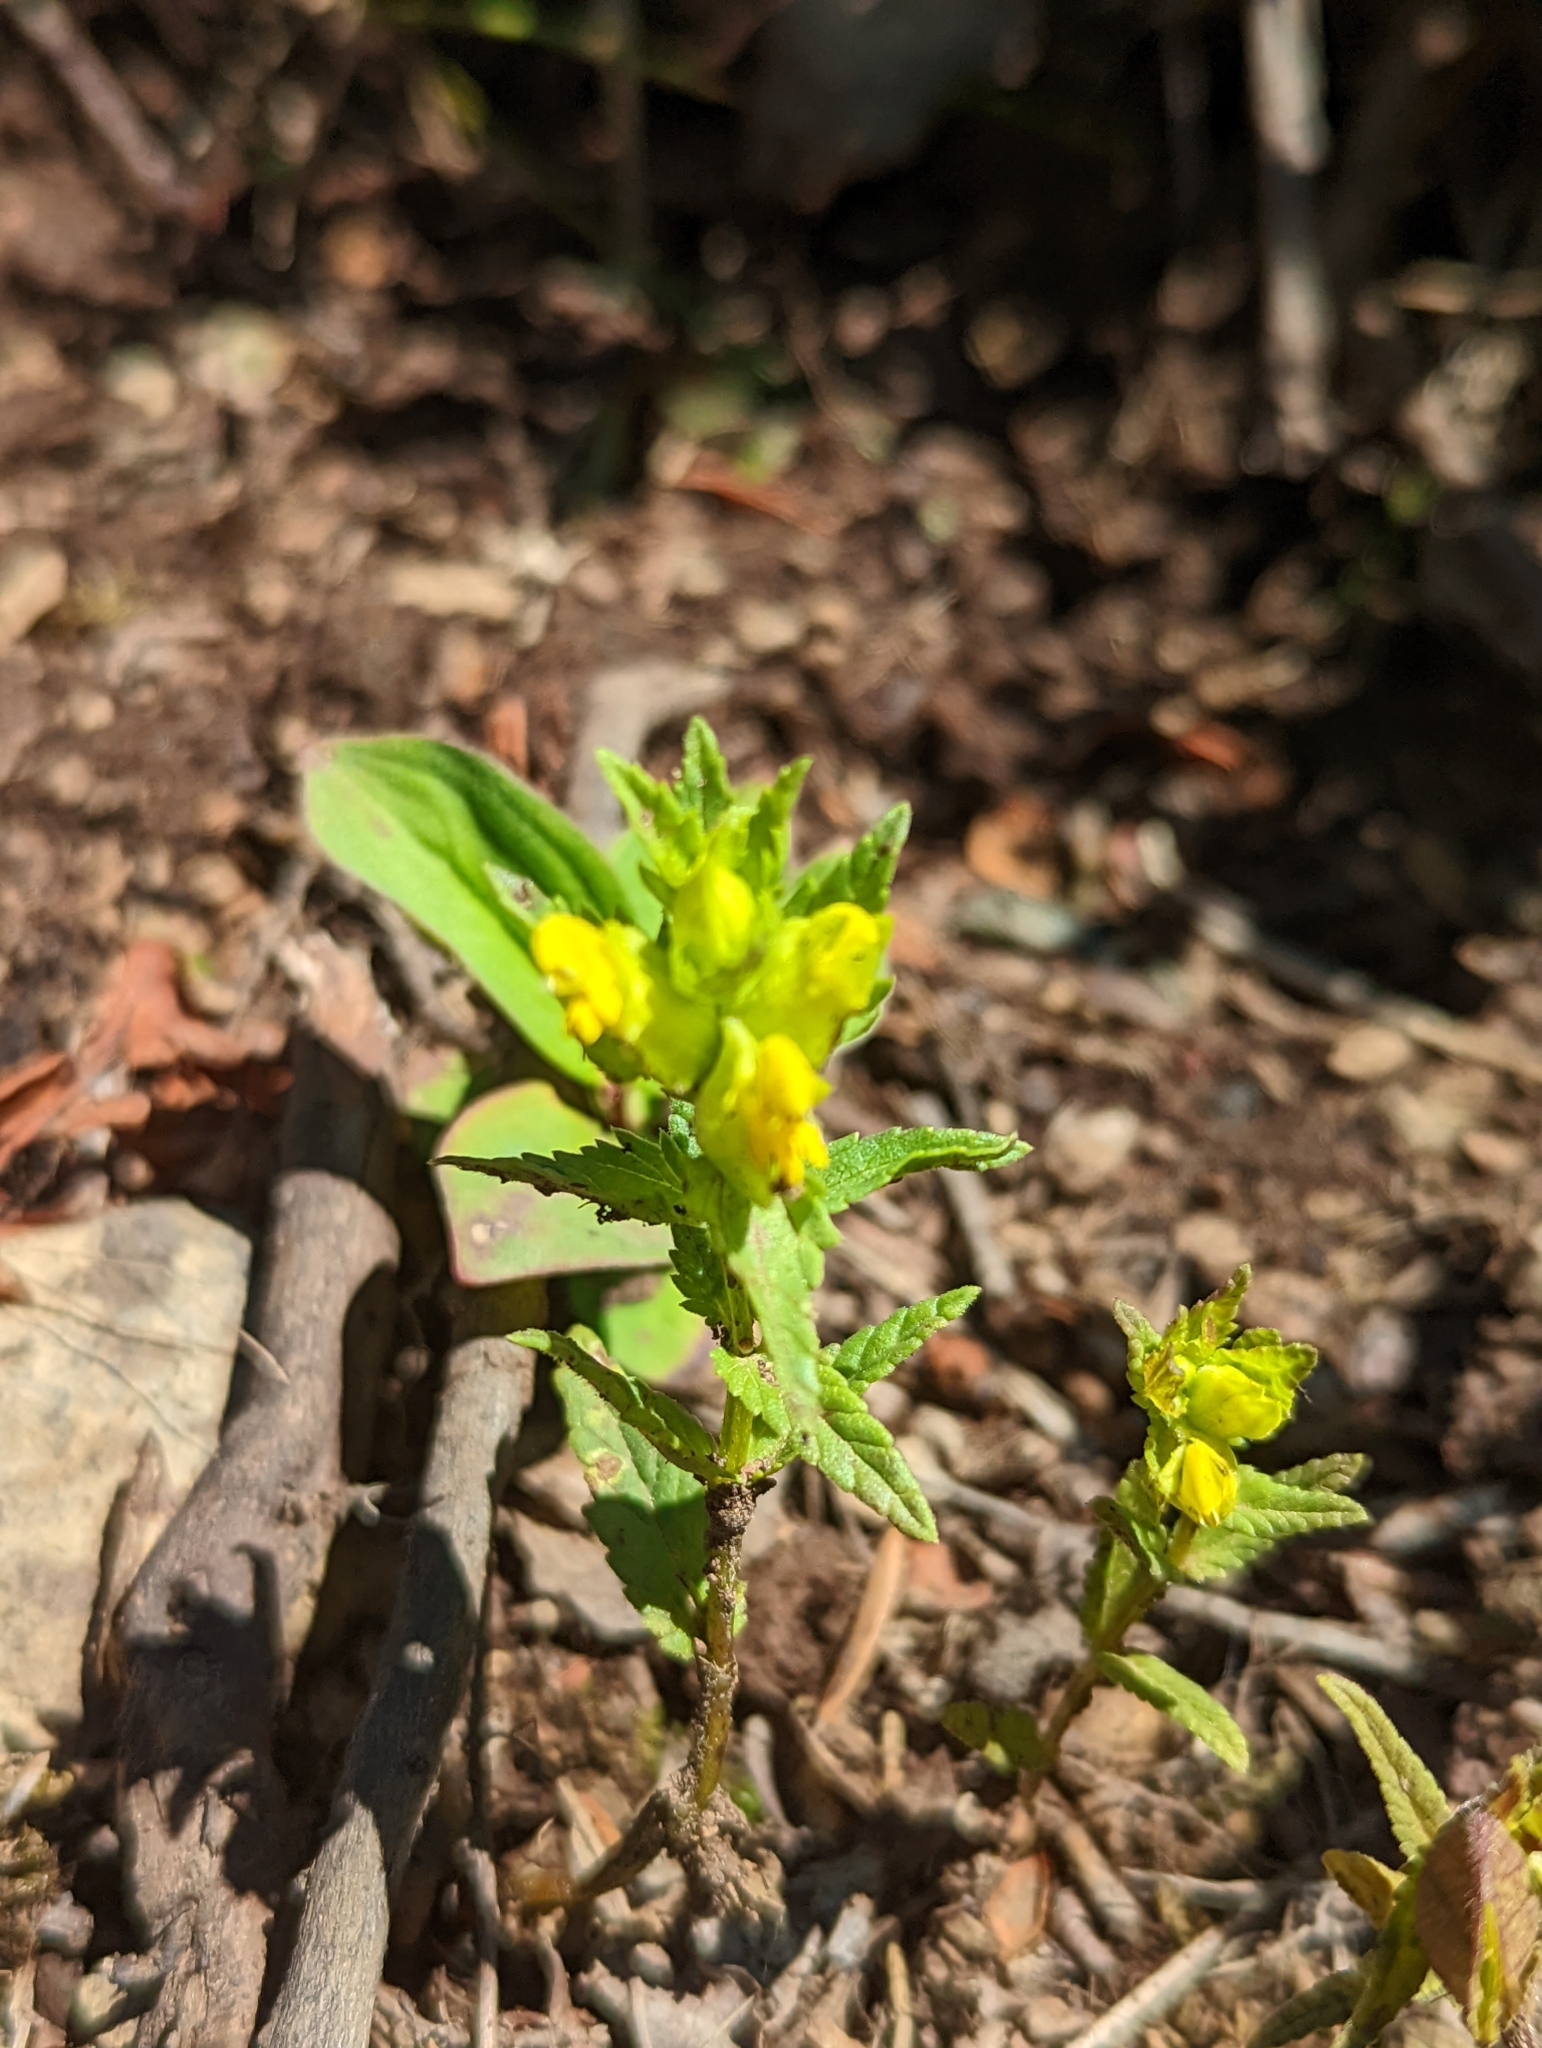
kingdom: Plantae
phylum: Tracheophyta
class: Magnoliopsida
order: Lamiales
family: Orobanchaceae
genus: Rhinanthus
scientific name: Rhinanthus minor
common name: Yellow-rattle
